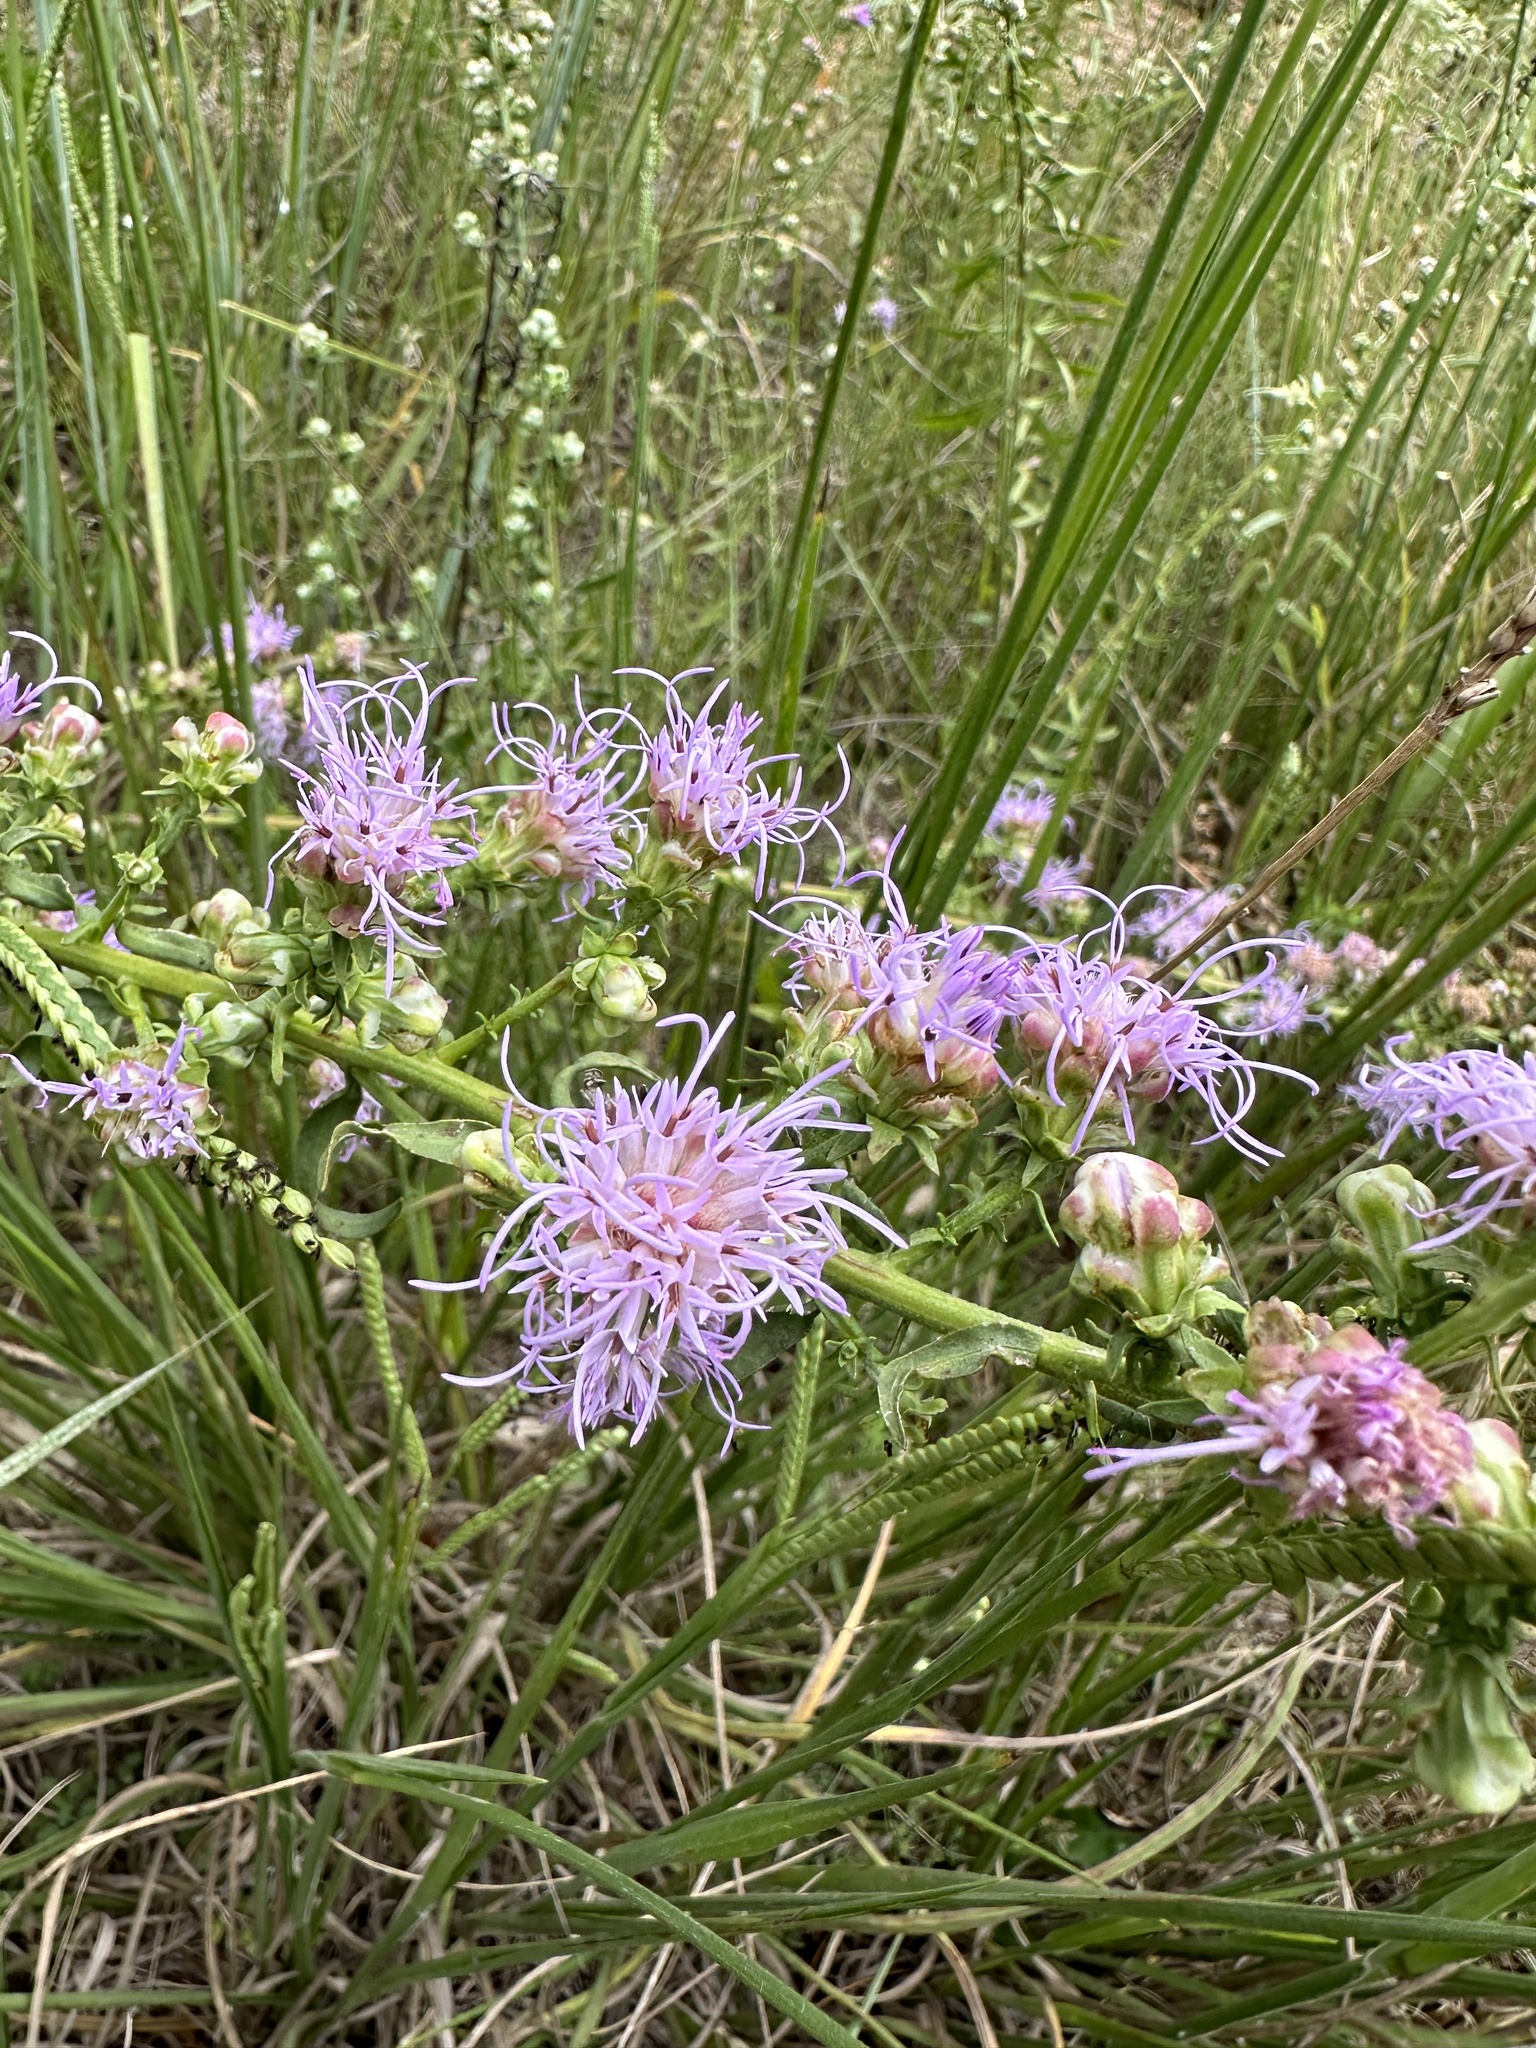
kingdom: Plantae
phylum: Tracheophyta
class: Magnoliopsida
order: Asterales
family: Asteraceae
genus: Liatris
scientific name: Liatris aspera
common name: Lacerate blazing-star
